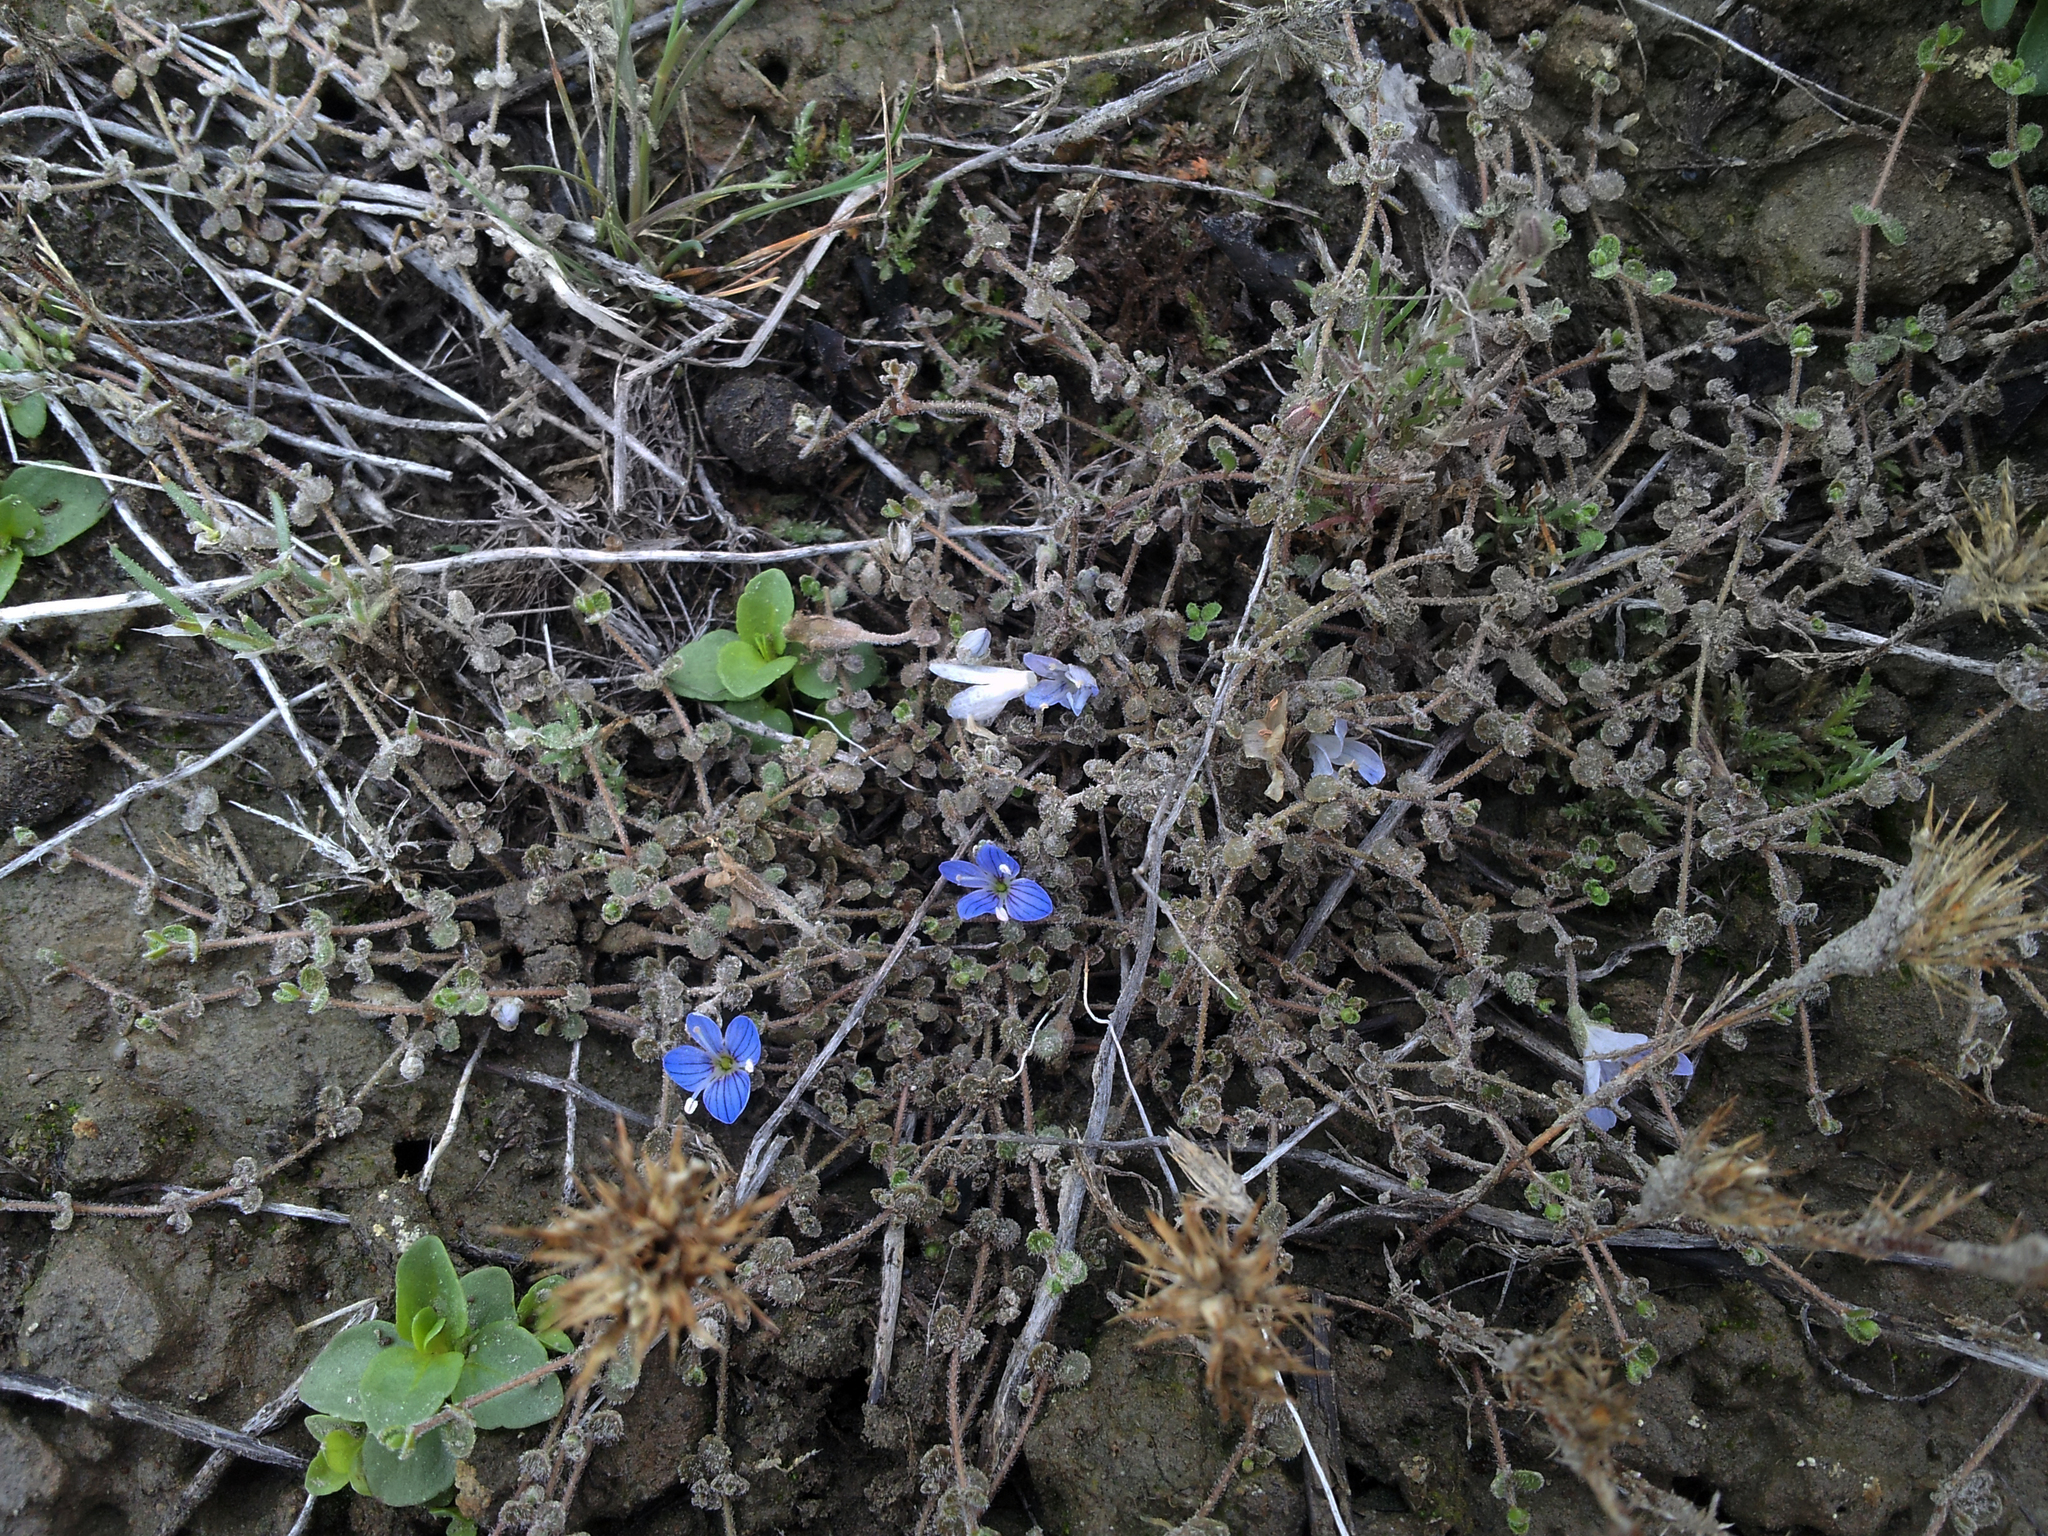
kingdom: Plantae
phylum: Tracheophyta
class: Magnoliopsida
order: Lamiales
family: Plantaginaceae
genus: Veronica
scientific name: Veronica lilliputiana
